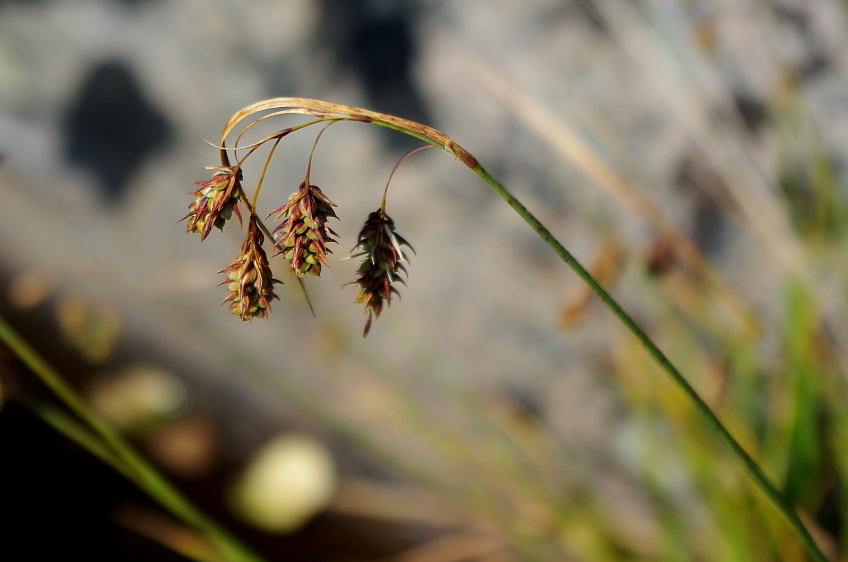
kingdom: Plantae
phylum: Tracheophyta
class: Liliopsida
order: Poales
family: Cyperaceae
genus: Carex
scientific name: Carex magellanica
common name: Bog sedge
